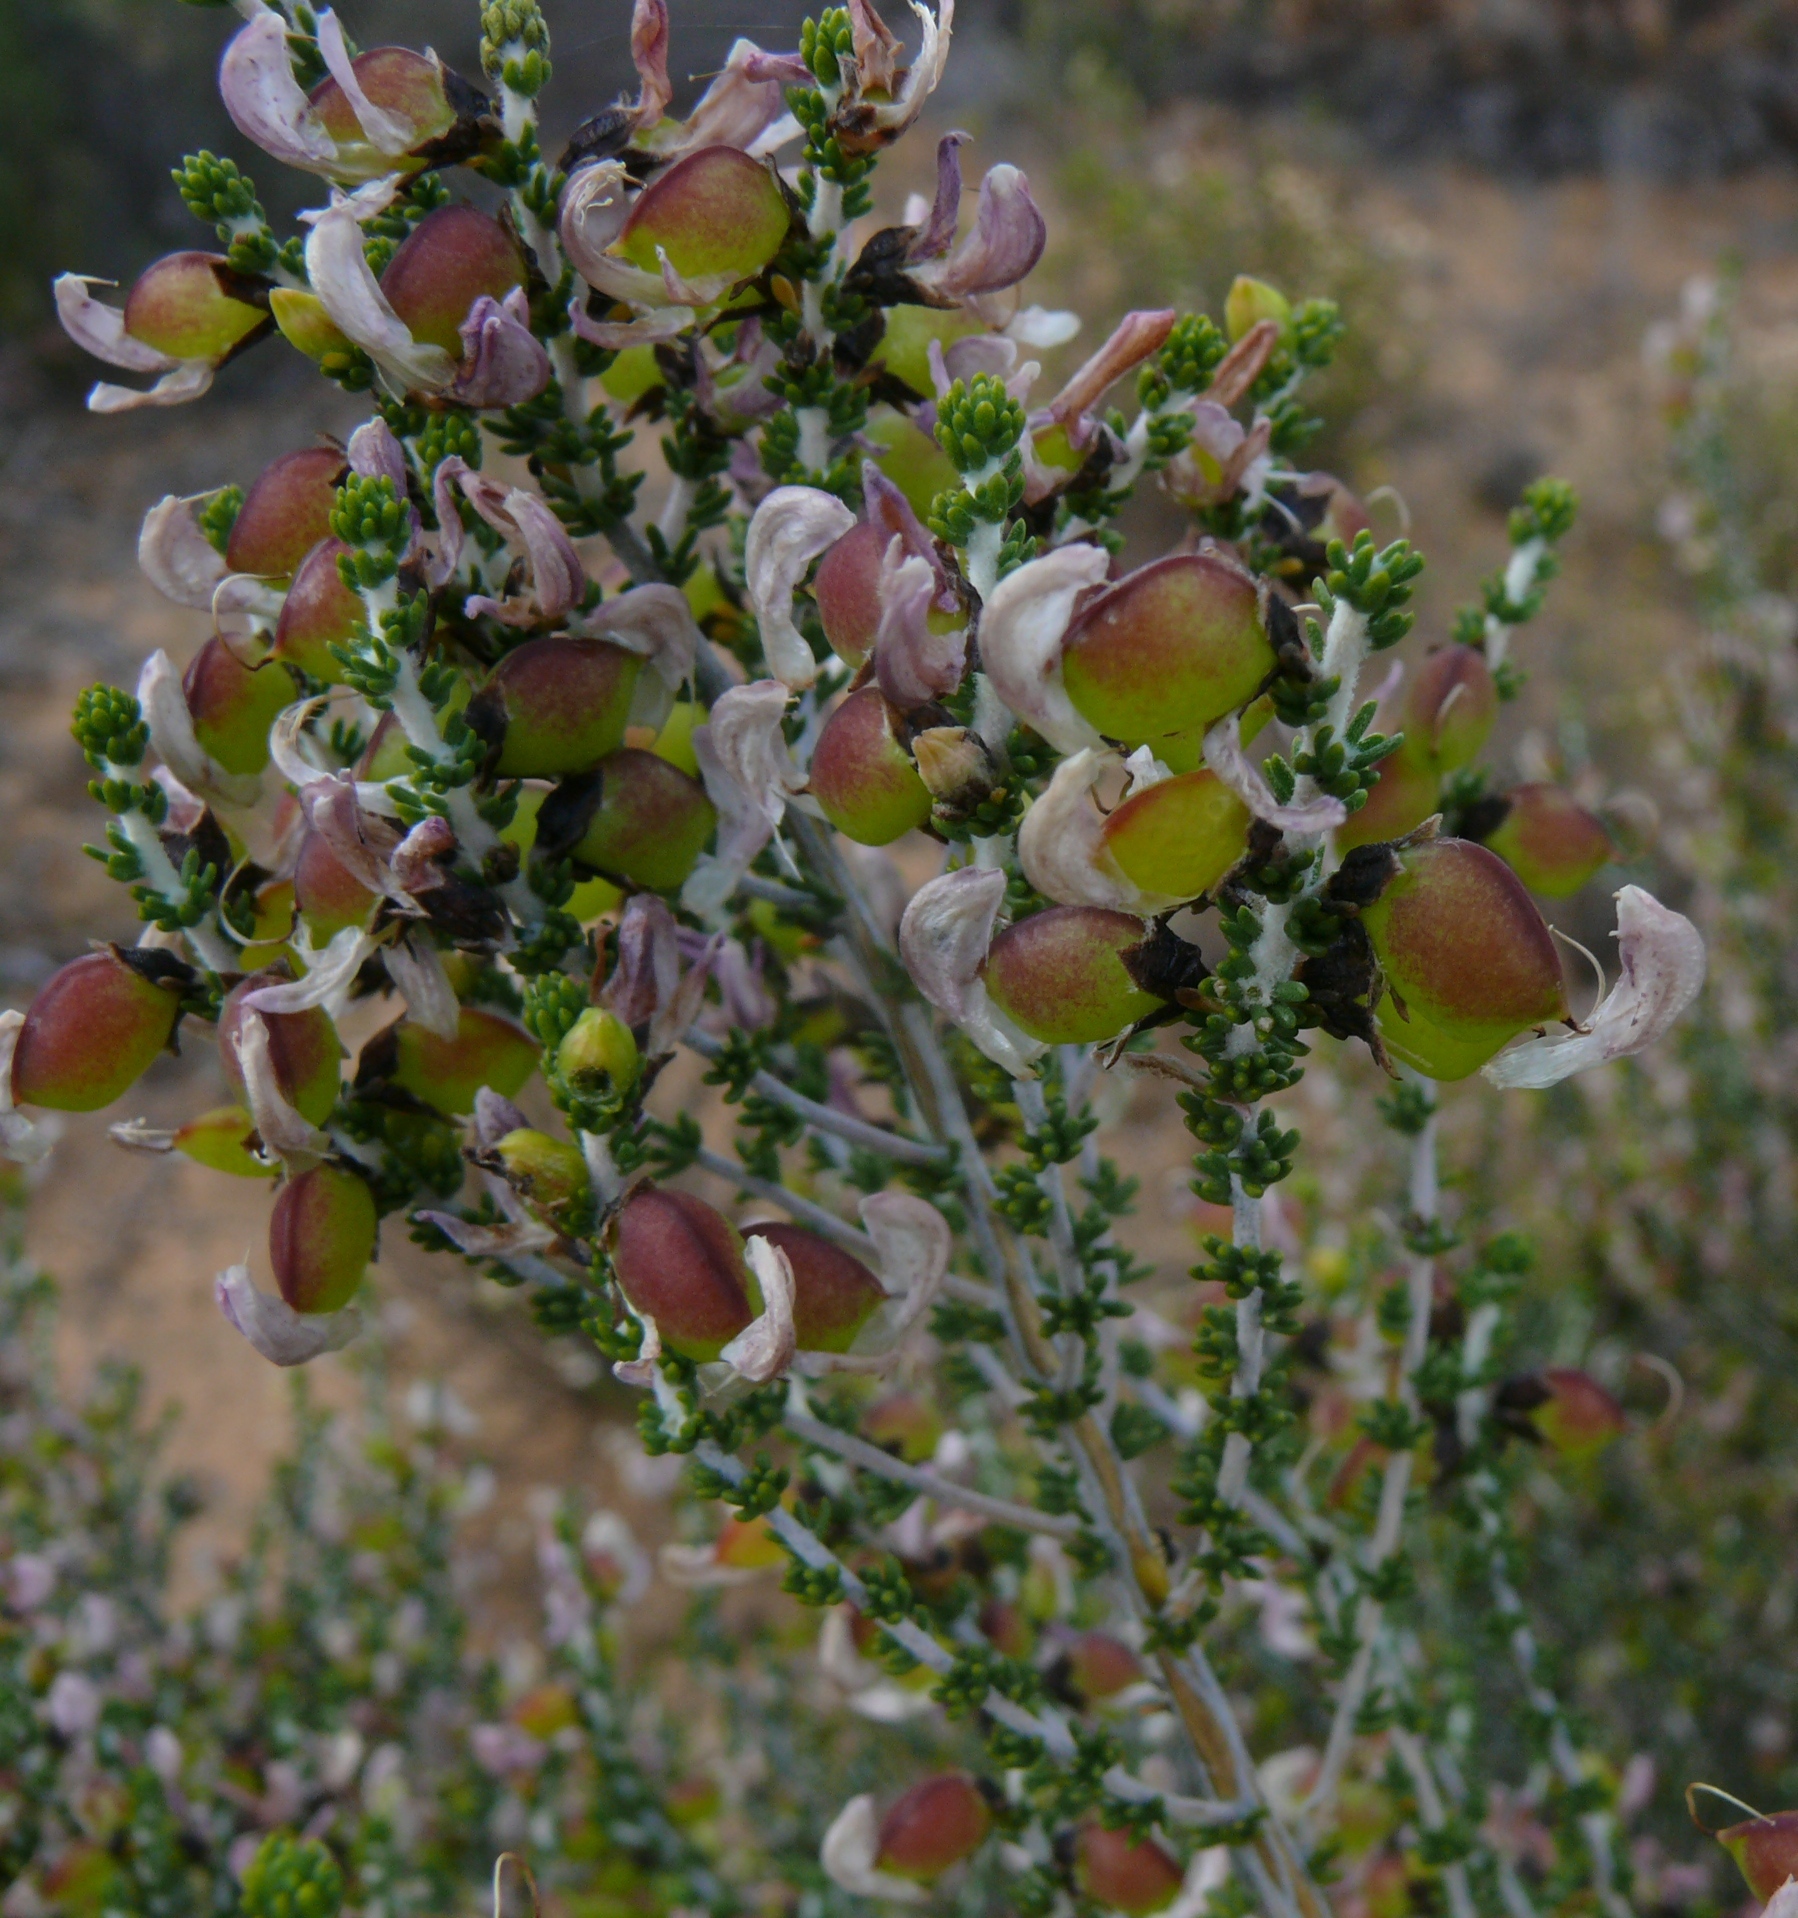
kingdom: Plantae
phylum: Tracheophyta
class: Magnoliopsida
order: Fabales
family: Fabaceae
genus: Aspalathus
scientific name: Aspalathus costulata
